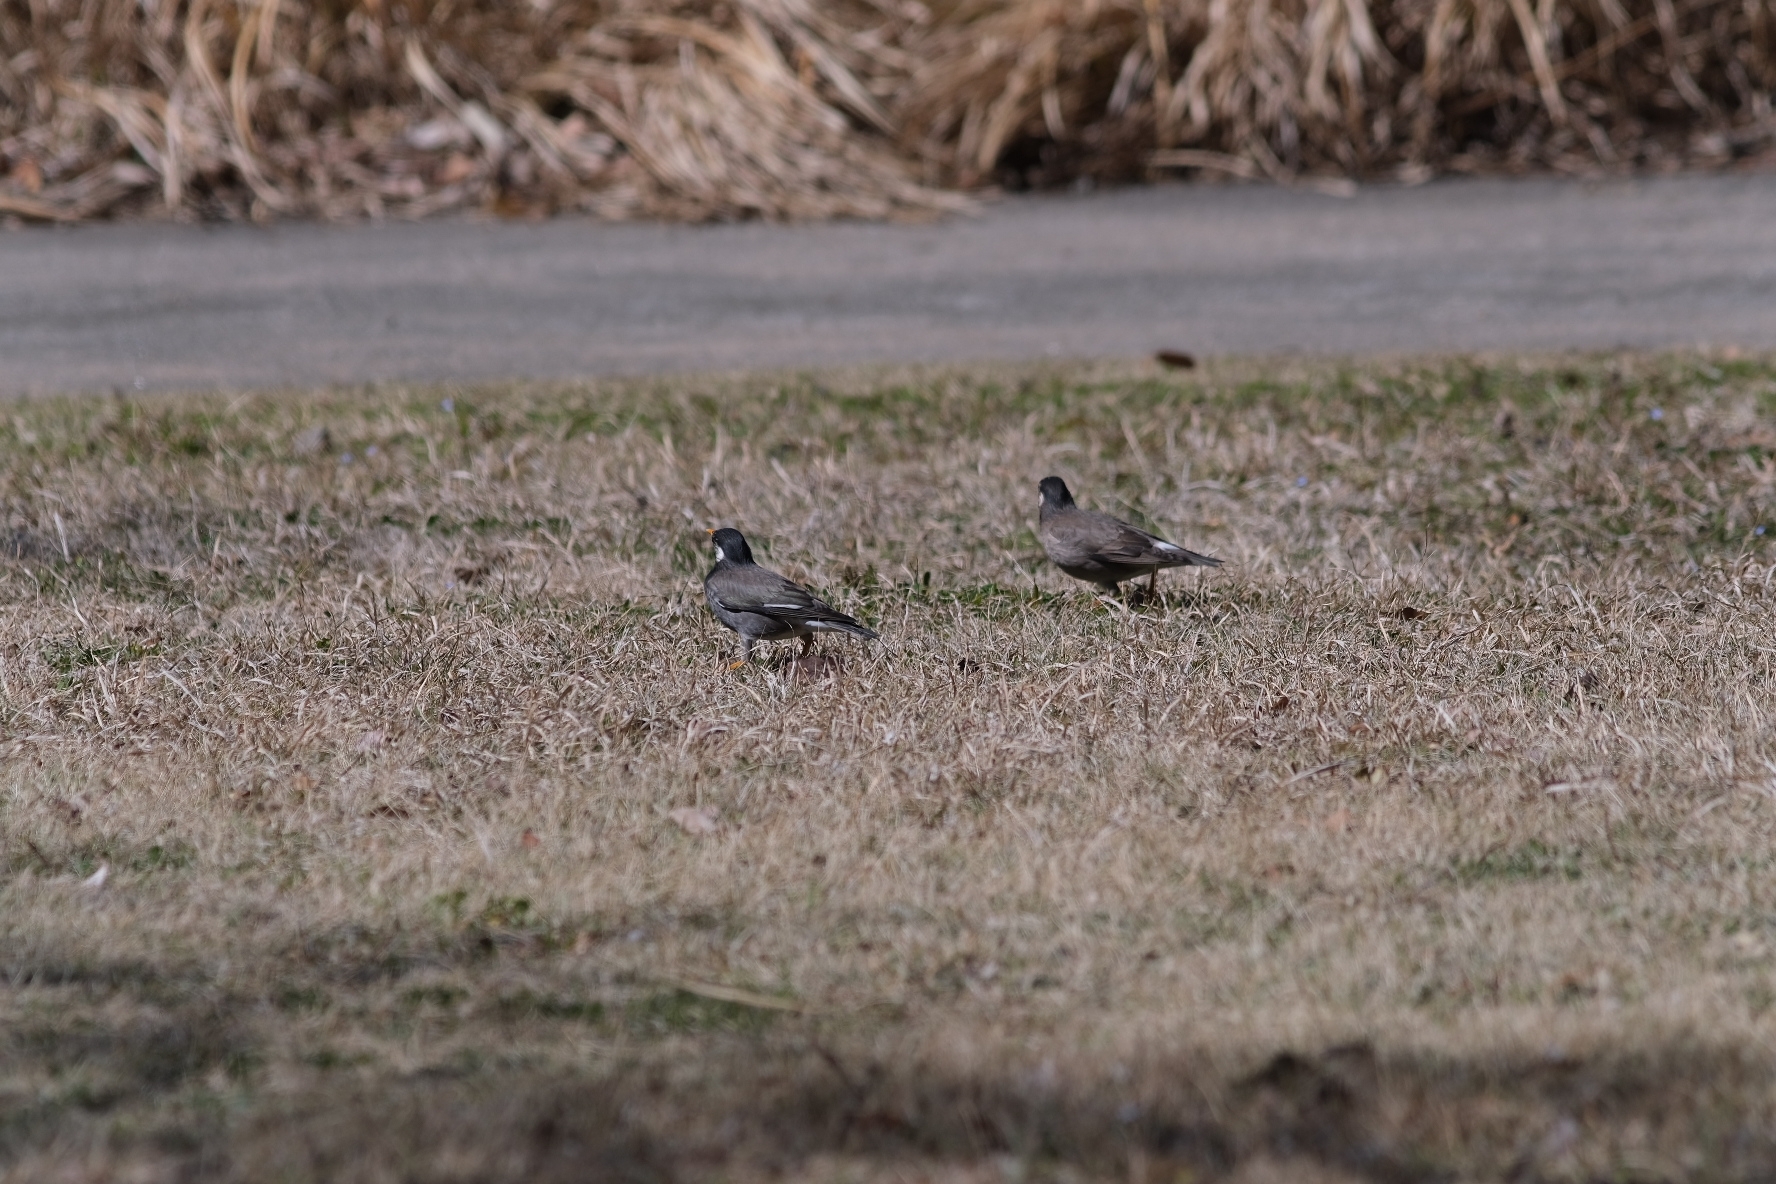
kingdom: Animalia
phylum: Chordata
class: Aves
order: Passeriformes
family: Sturnidae
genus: Spodiopsar
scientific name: Spodiopsar cineraceus
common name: White-cheeked starling
